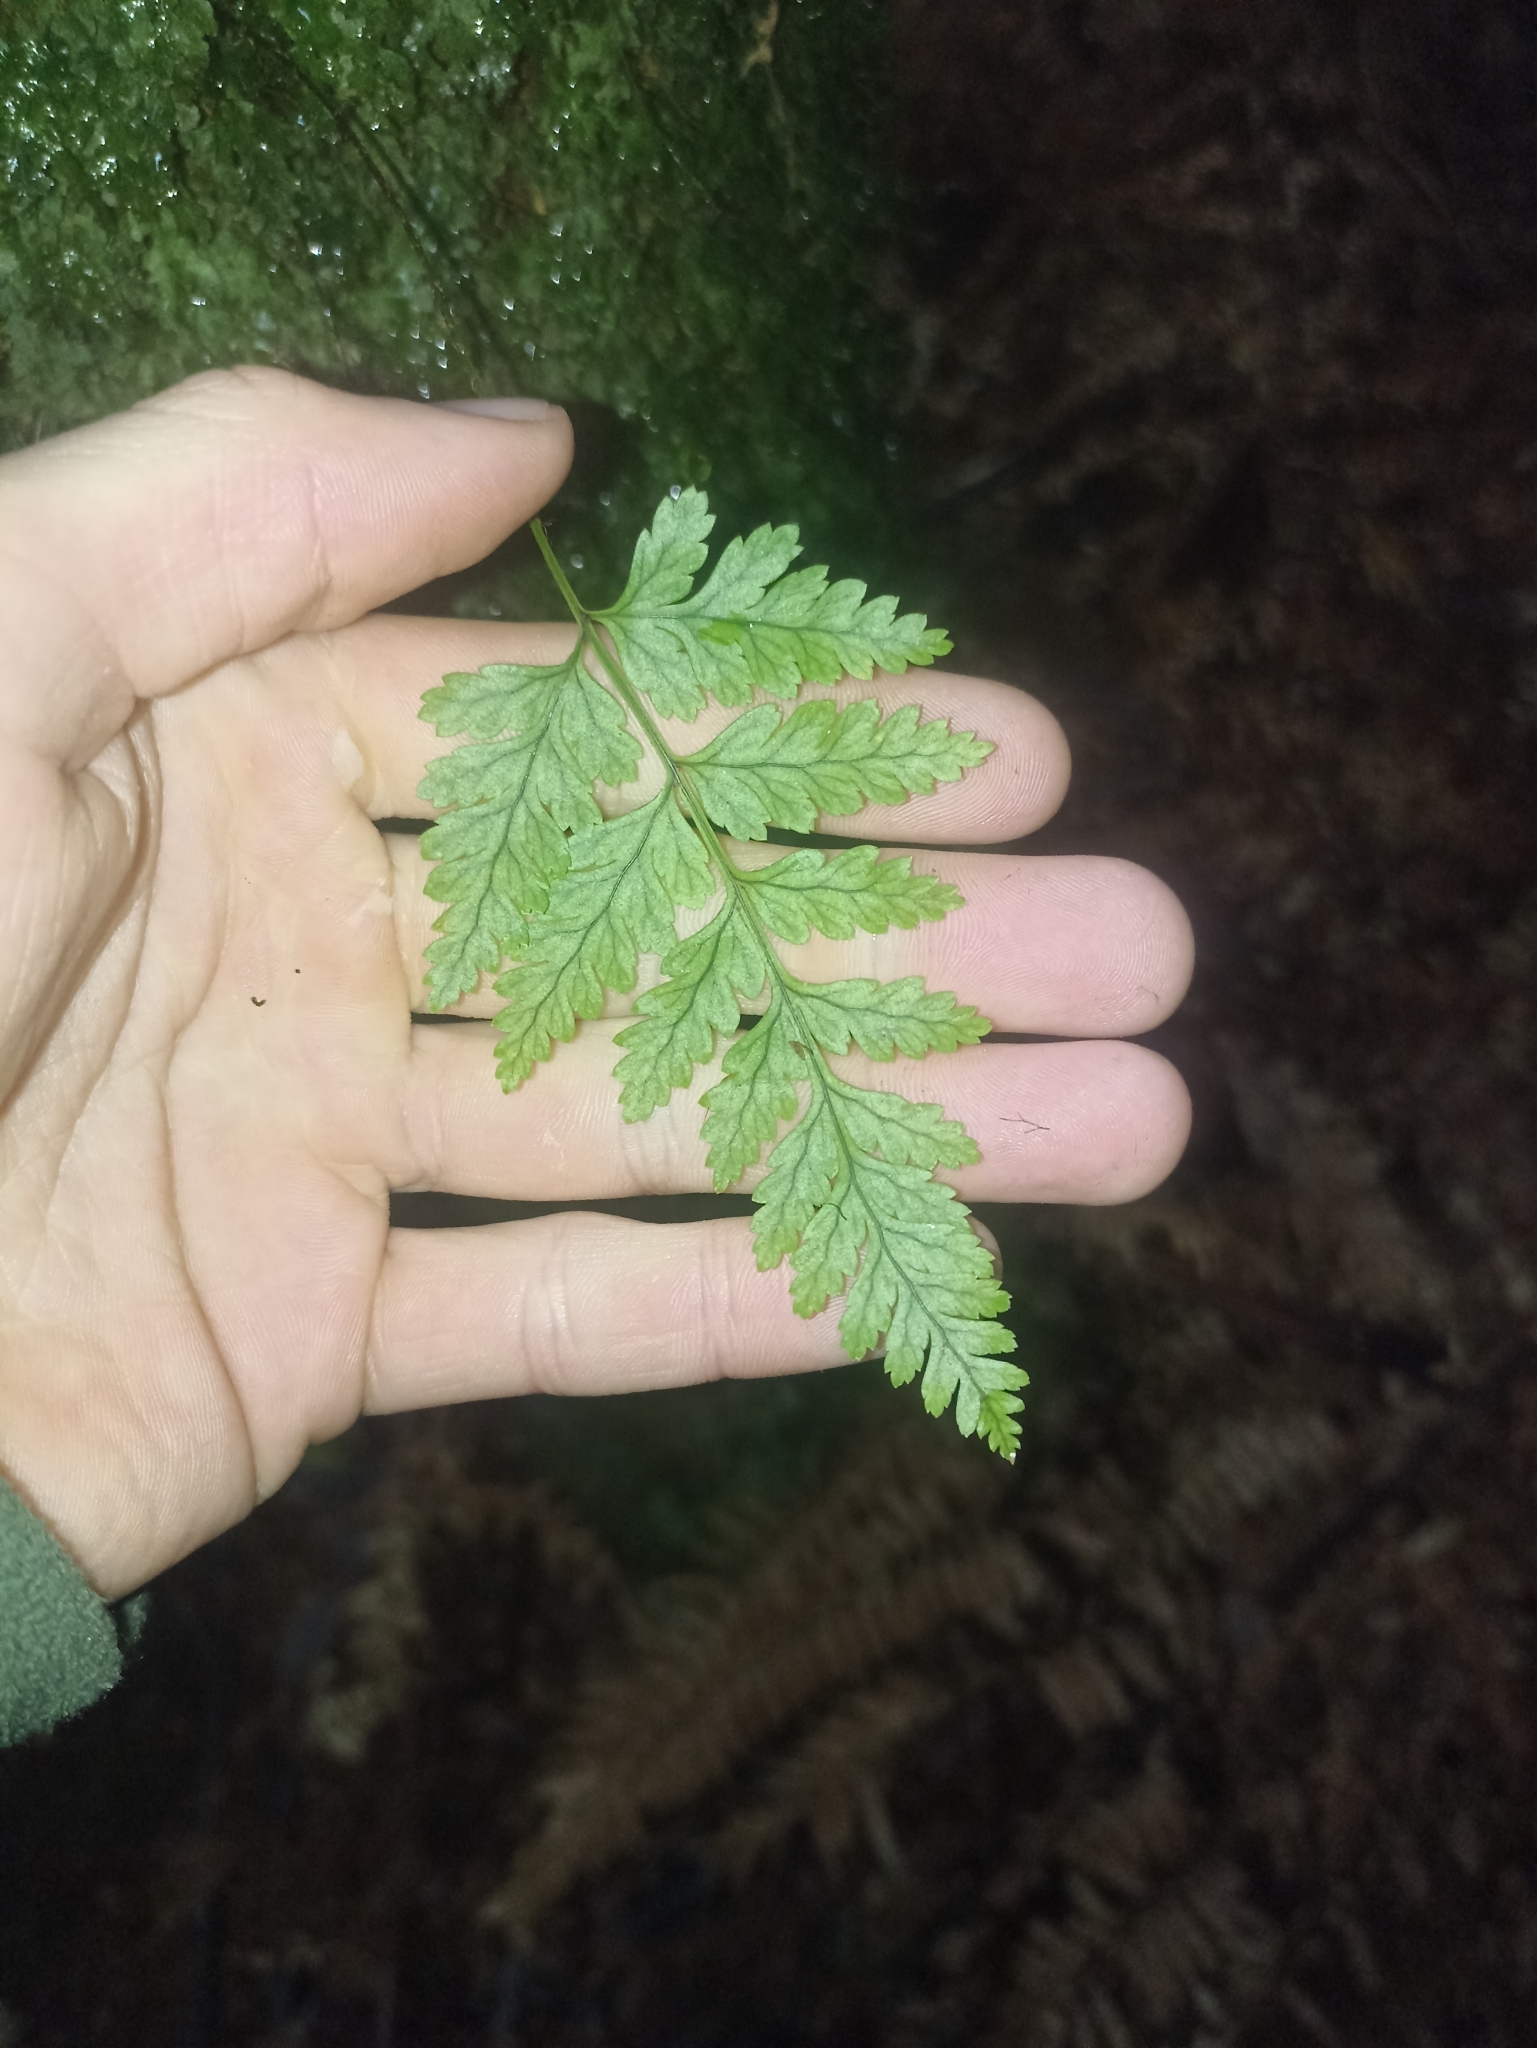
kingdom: Plantae
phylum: Tracheophyta
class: Polypodiopsida
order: Polypodiales
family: Dryopteridaceae
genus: Rumohra
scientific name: Rumohra adiantiformis
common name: Leather fern
